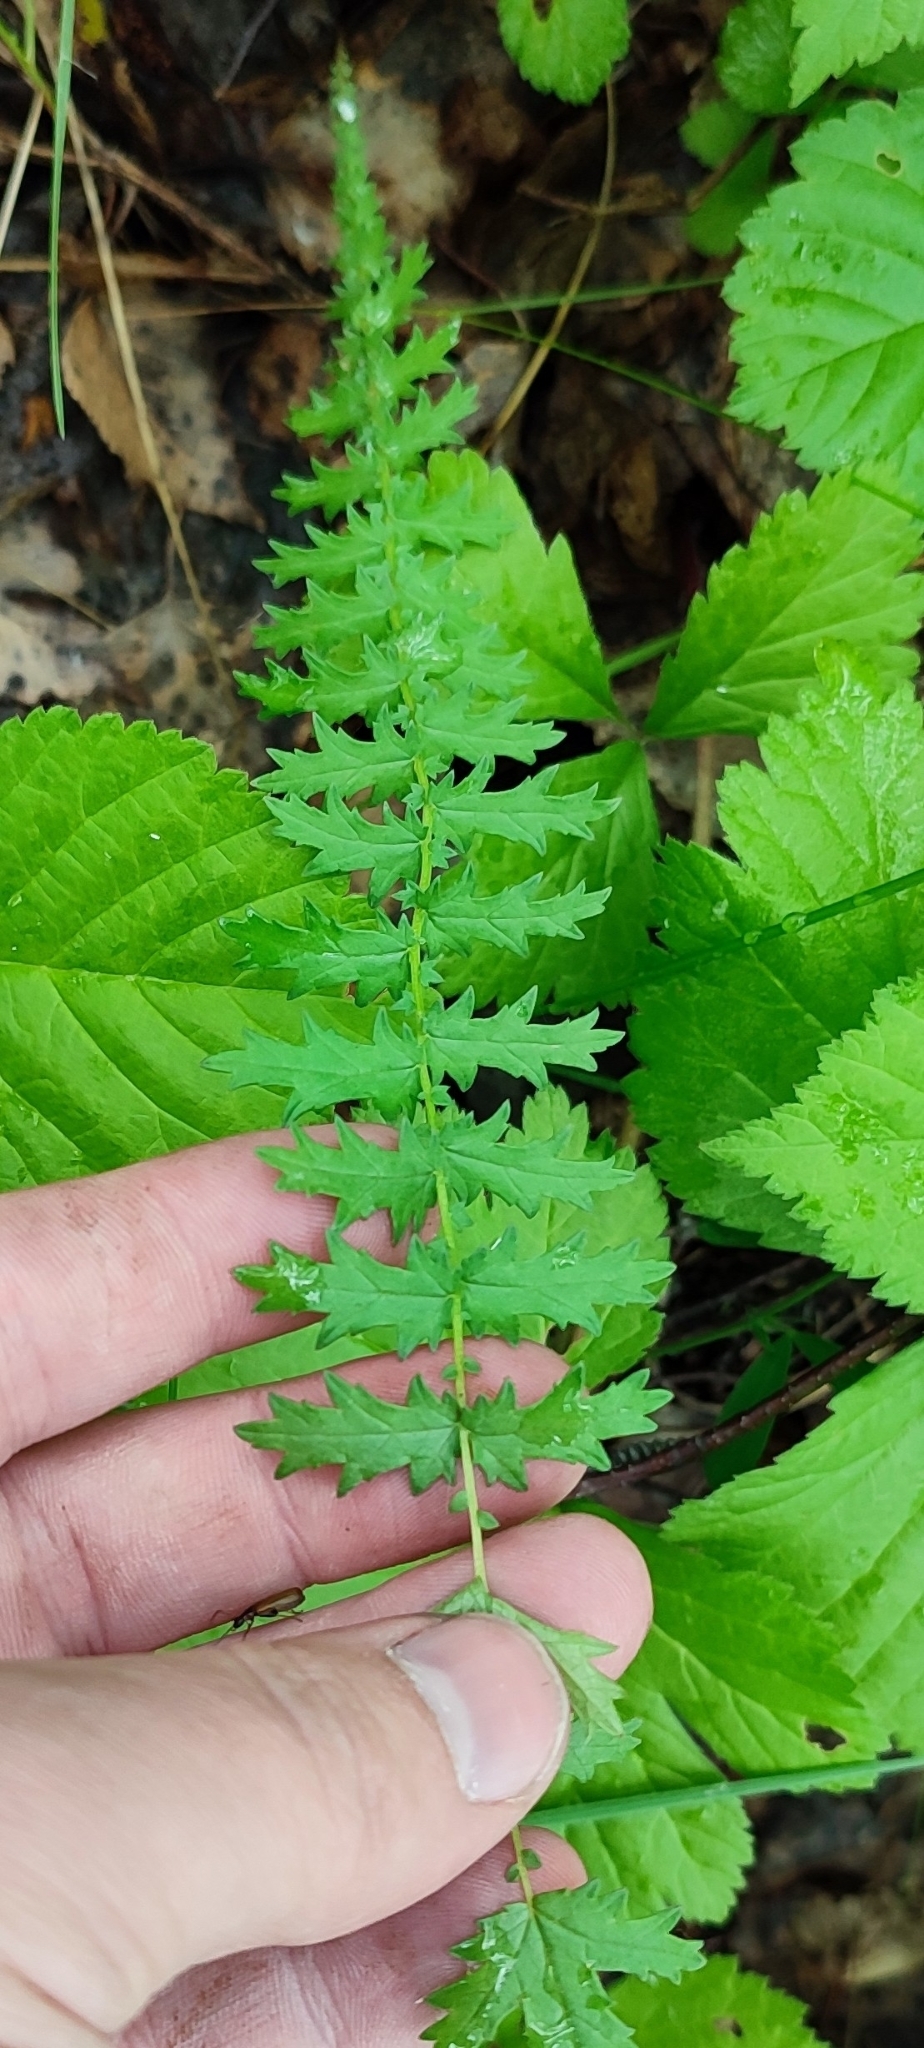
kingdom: Plantae
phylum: Tracheophyta
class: Magnoliopsida
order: Rosales
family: Rosaceae
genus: Filipendula
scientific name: Filipendula vulgaris
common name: Dropwort
